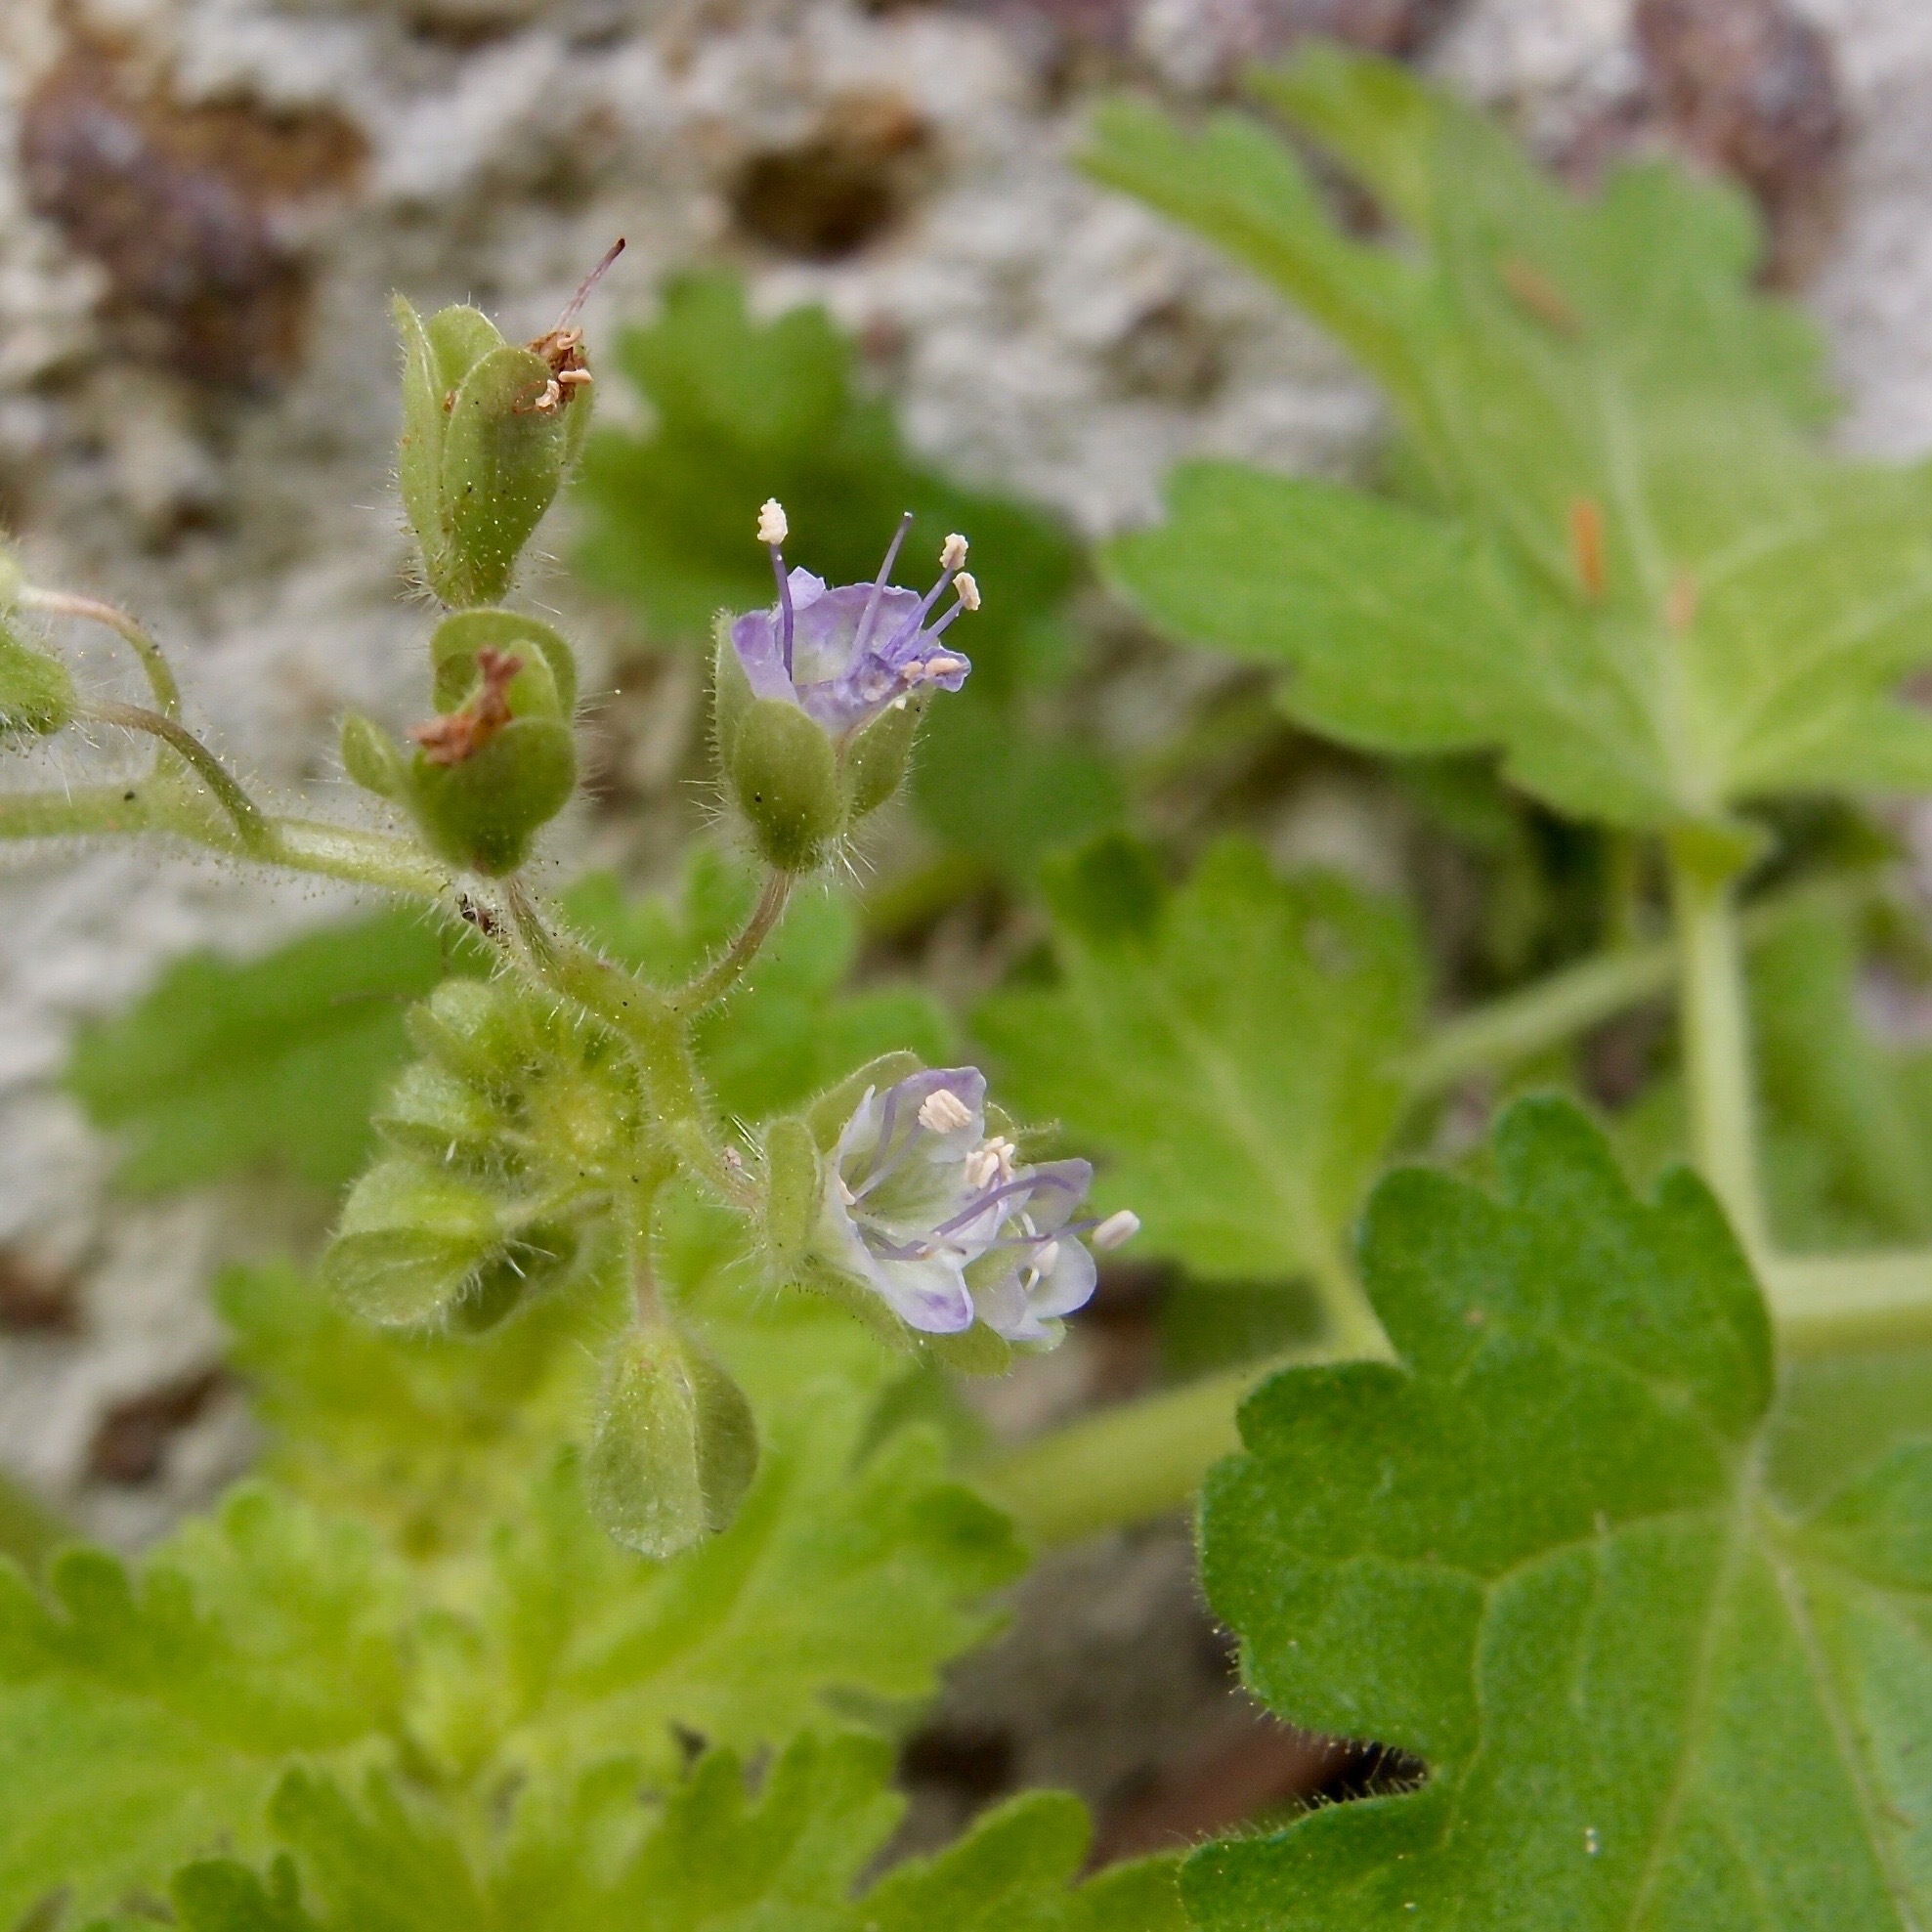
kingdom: Plantae
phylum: Tracheophyta
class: Magnoliopsida
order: Boraginales
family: Hydrophyllaceae
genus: Phacelia
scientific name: Phacelia scariosa
